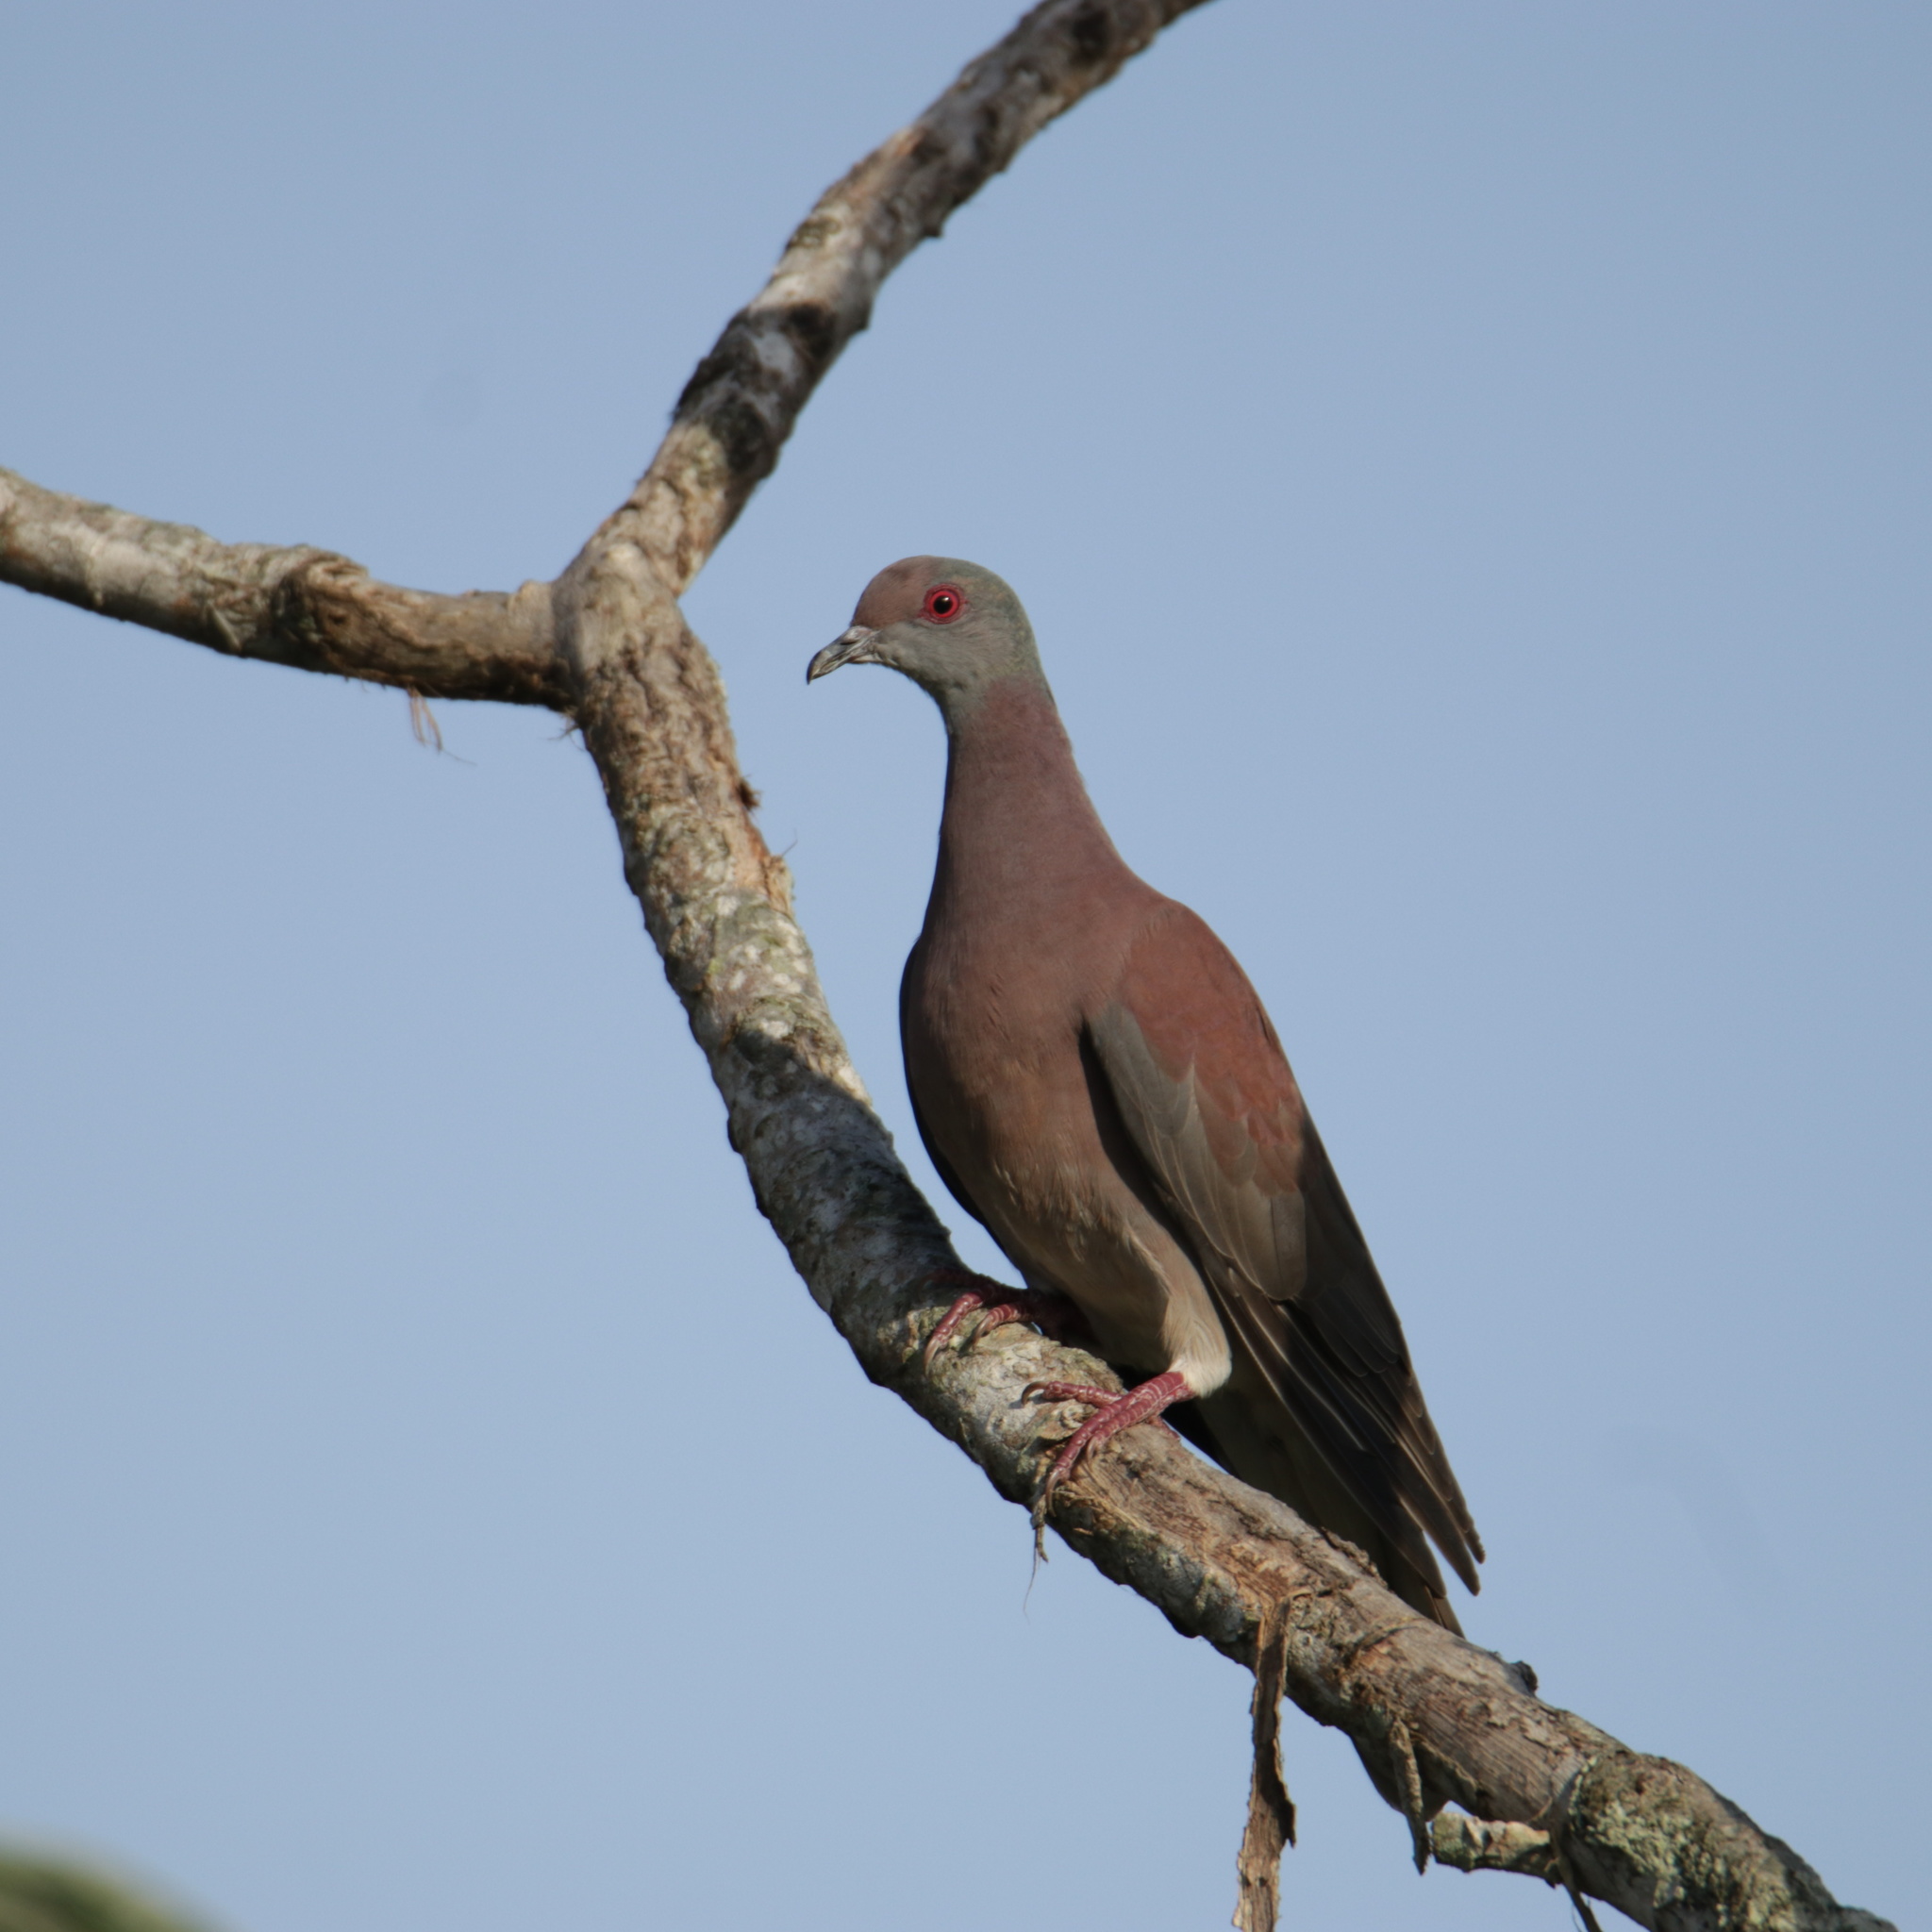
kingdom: Animalia
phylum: Chordata
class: Aves
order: Columbiformes
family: Columbidae
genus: Patagioenas
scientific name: Patagioenas cayennensis
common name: Pale-vented pigeon
